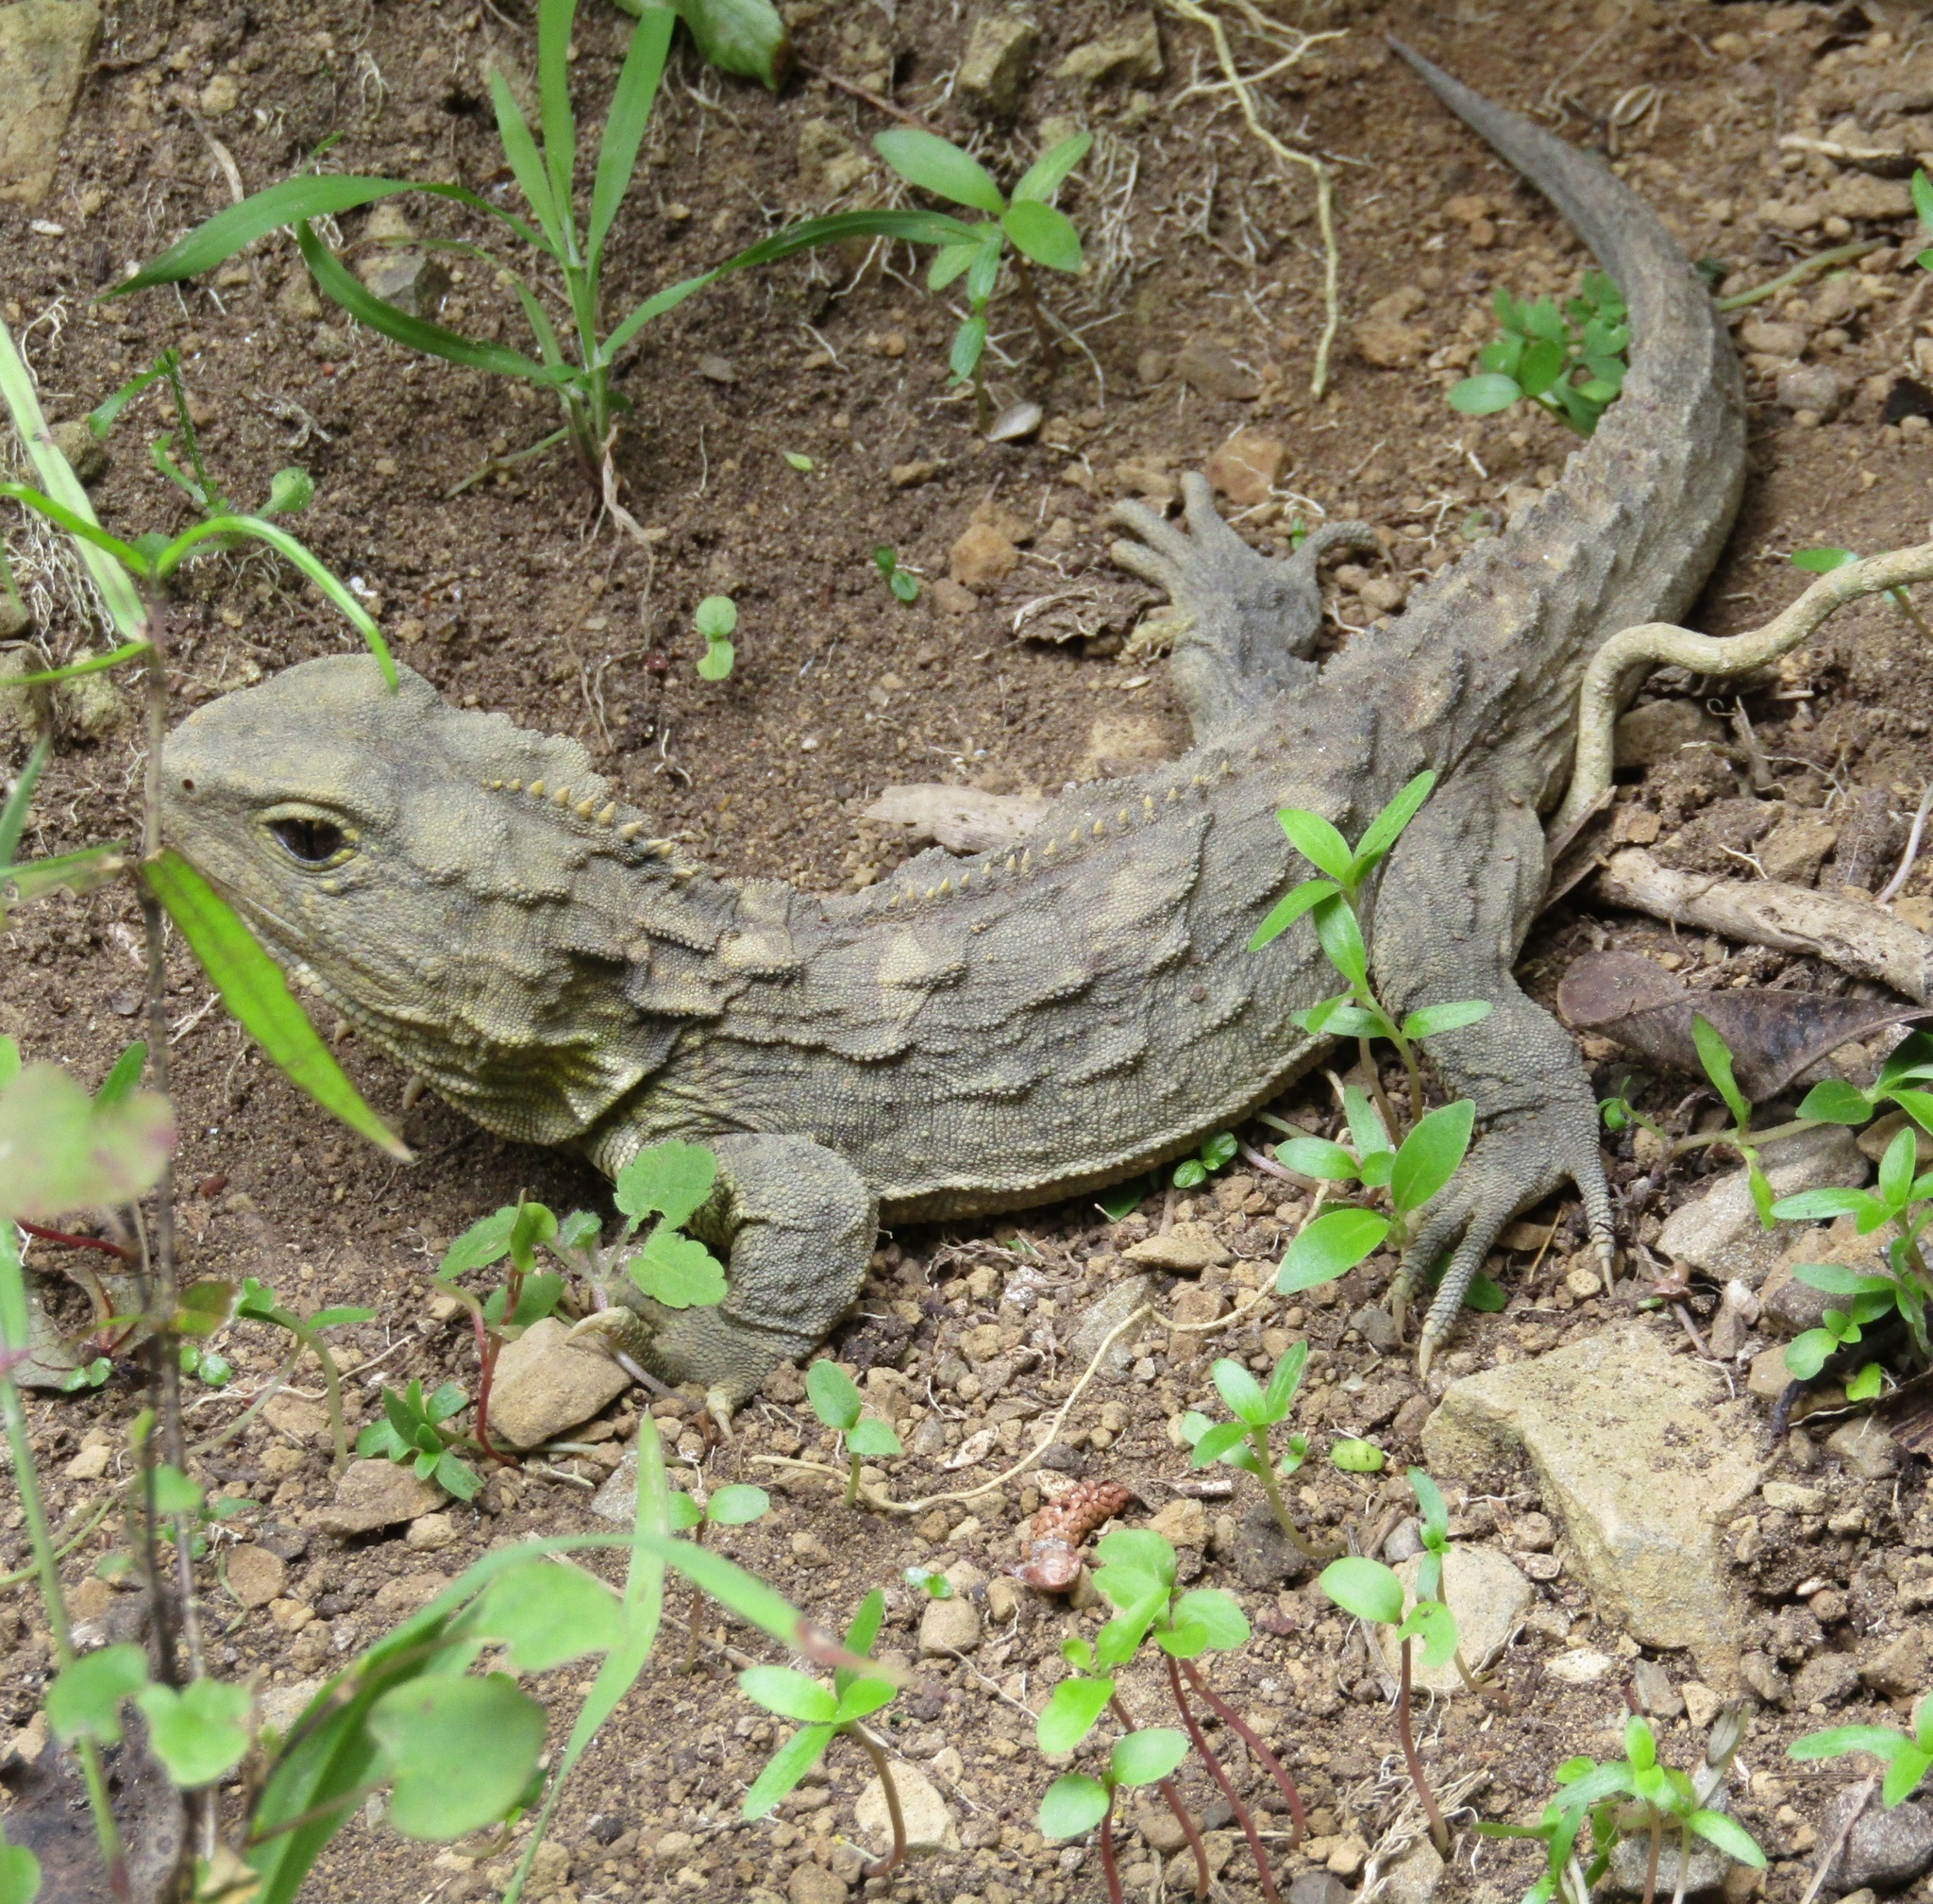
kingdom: Animalia
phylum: Chordata
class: Sphenodontia
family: Sphenodontidae
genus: Sphenodon
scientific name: Sphenodon punctatus
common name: Tuatara
